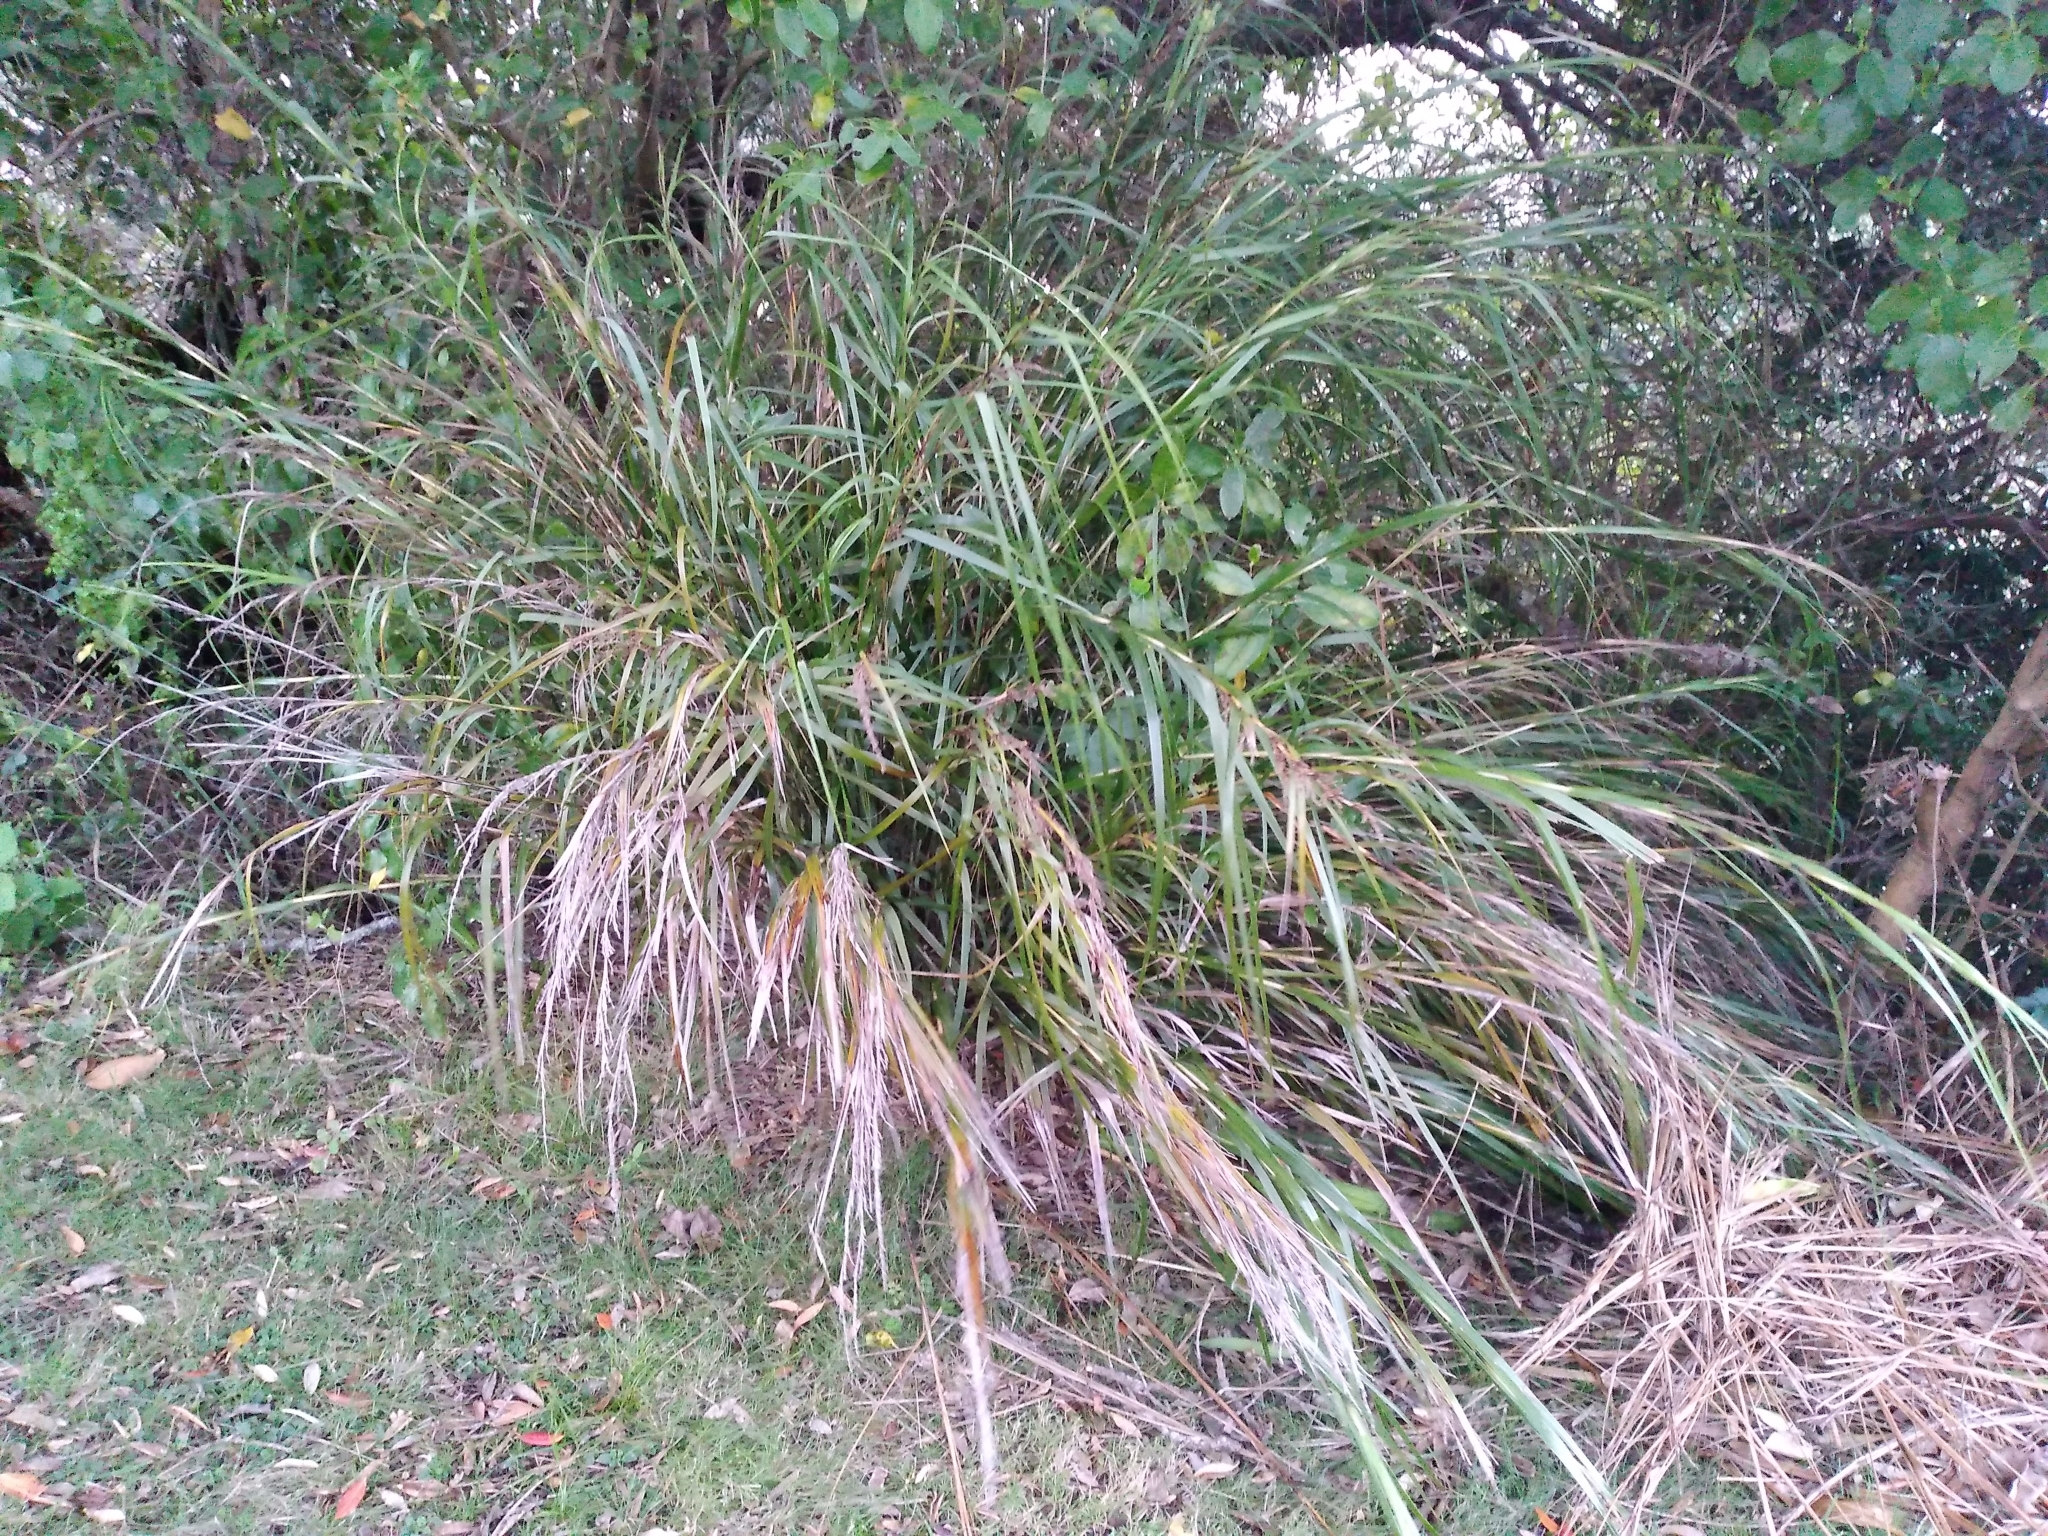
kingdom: Plantae
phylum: Tracheophyta
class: Liliopsida
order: Poales
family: Cyperaceae
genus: Gahnia
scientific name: Gahnia lacera
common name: Sawsedge
